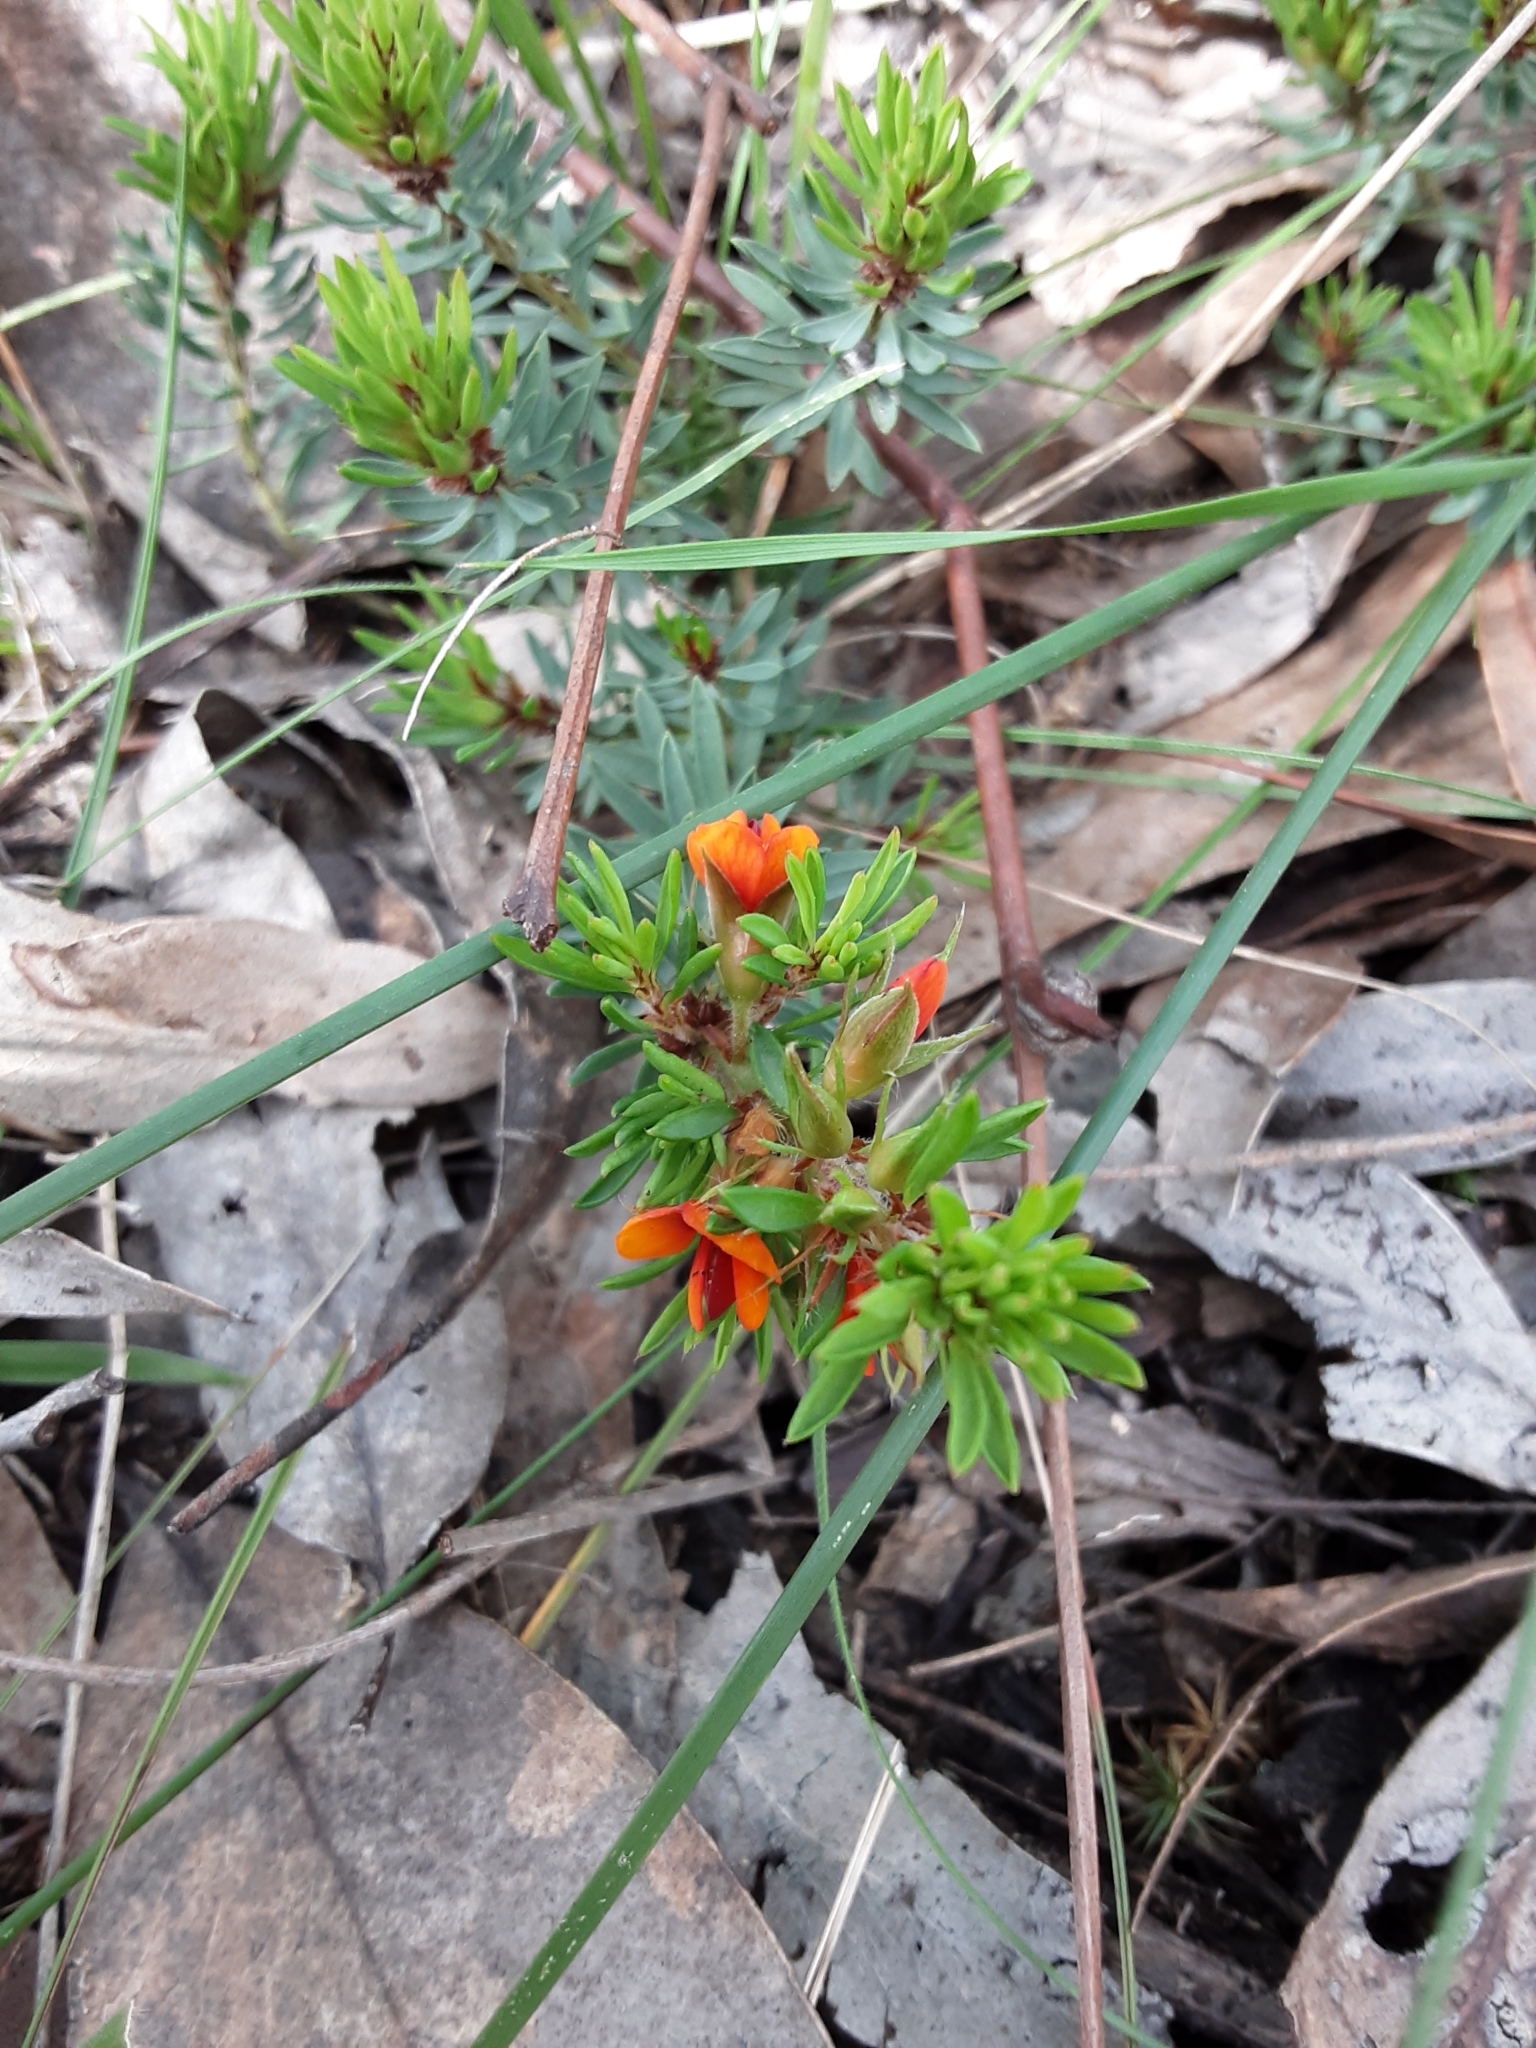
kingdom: Plantae
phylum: Tracheophyta
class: Magnoliopsida
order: Fabales
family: Fabaceae
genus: Pultenaea
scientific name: Pultenaea humilis
